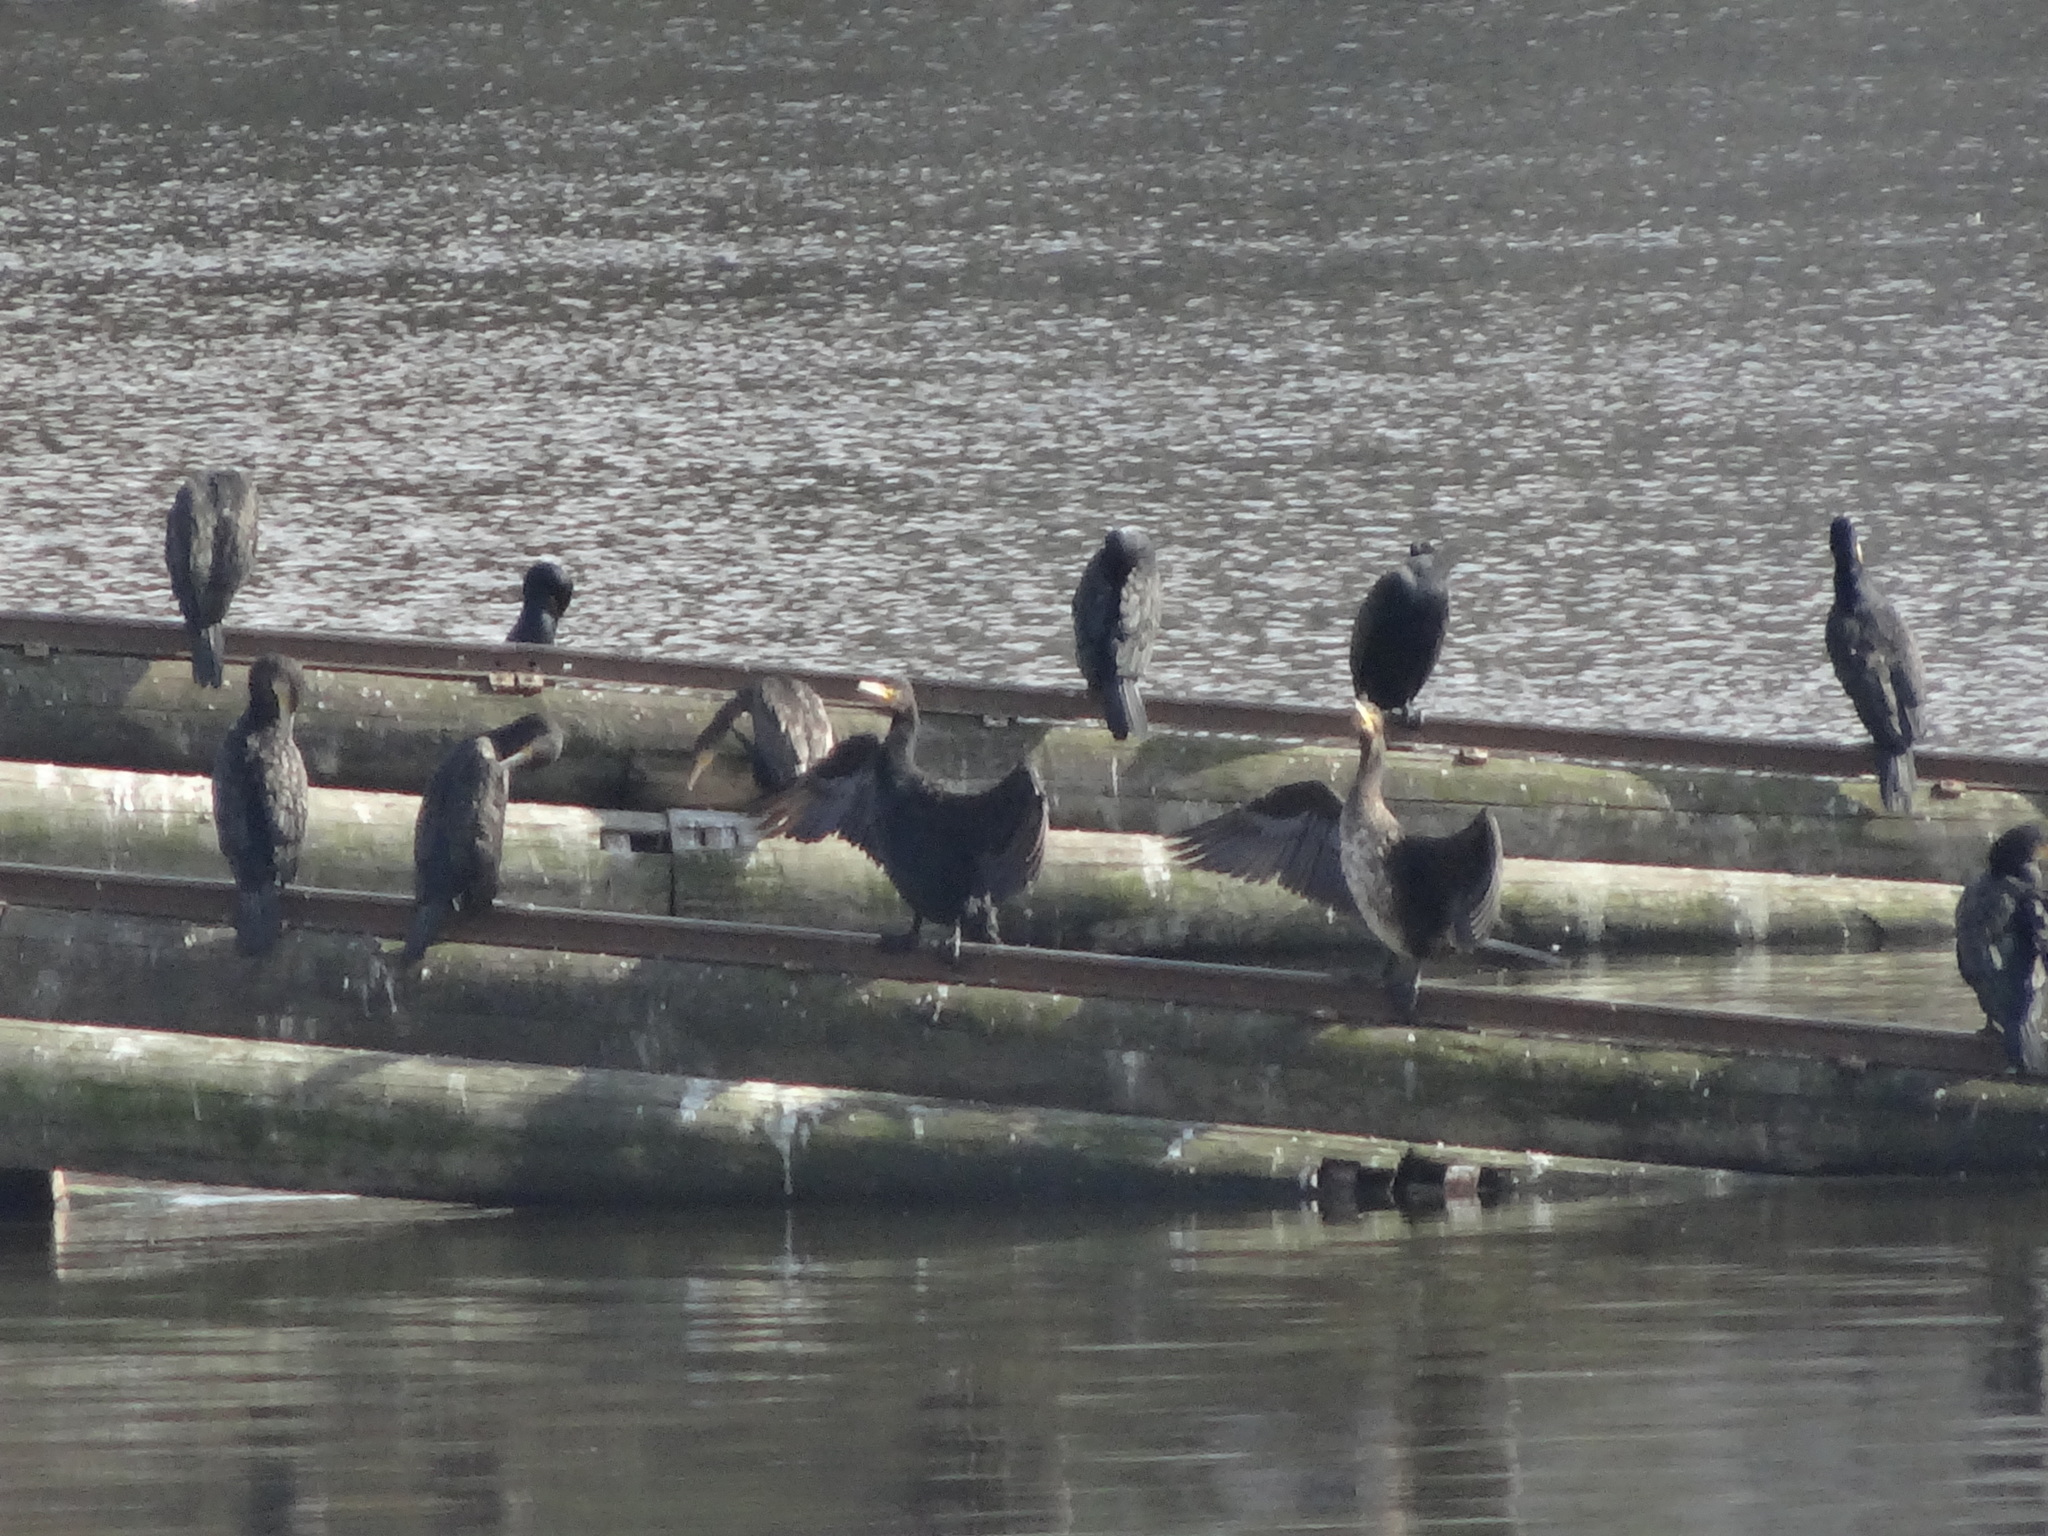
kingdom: Animalia
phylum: Chordata
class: Aves
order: Suliformes
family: Phalacrocoracidae
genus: Phalacrocorax
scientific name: Phalacrocorax carbo
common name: Great cormorant
